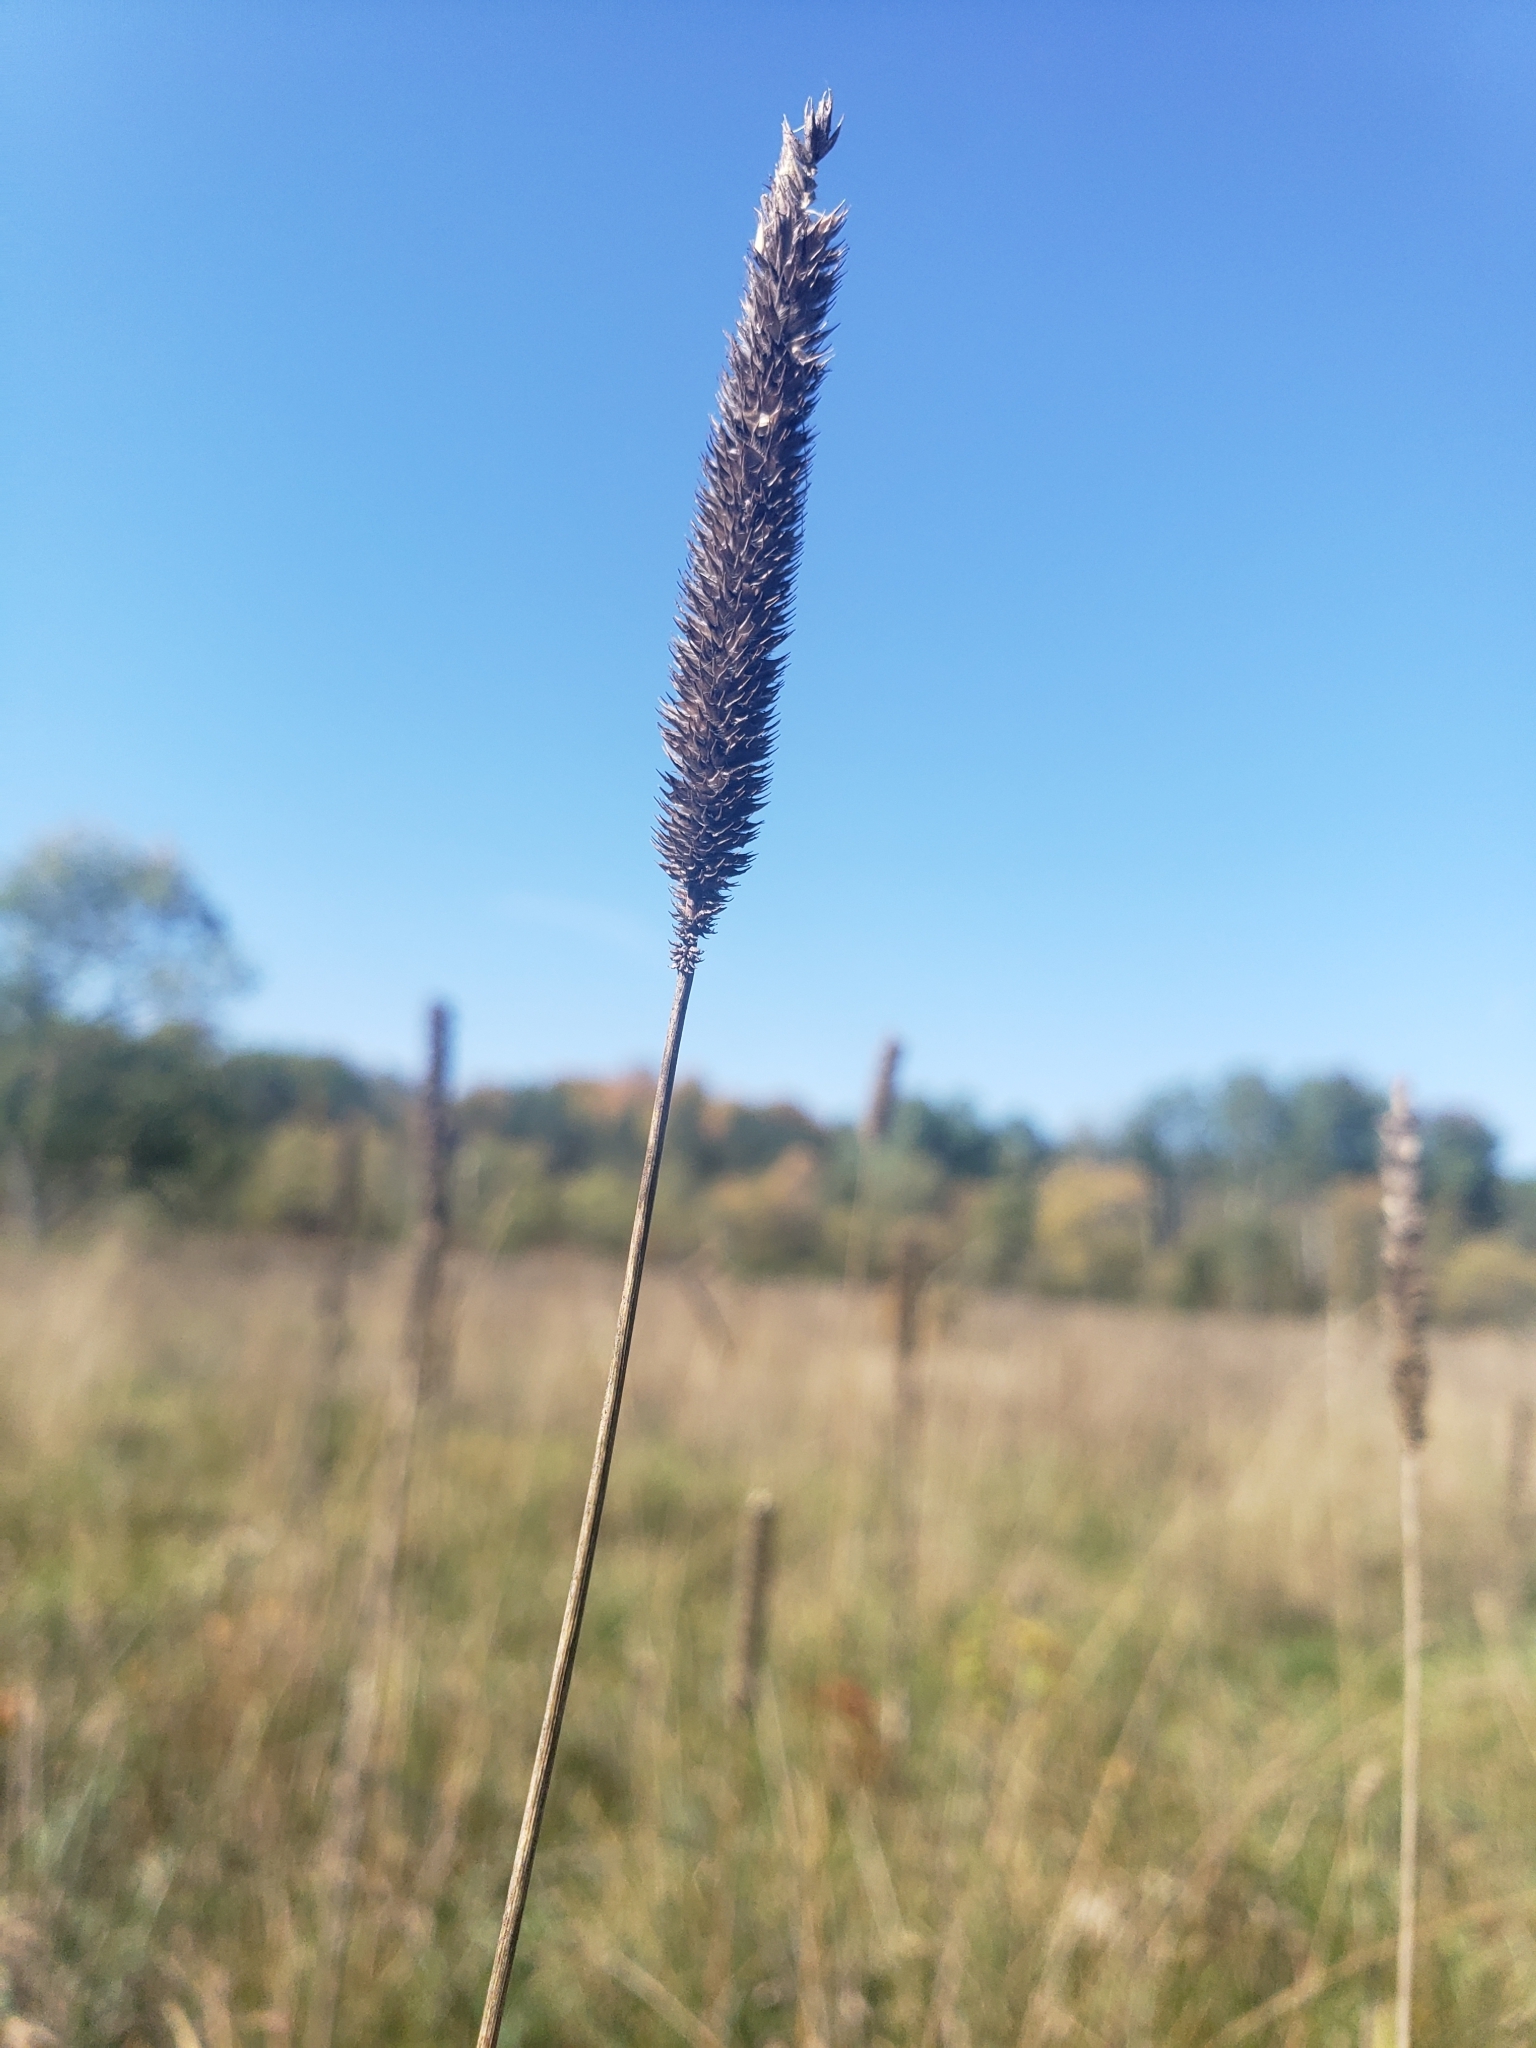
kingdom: Plantae
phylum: Tracheophyta
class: Liliopsida
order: Poales
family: Poaceae
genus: Phleum
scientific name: Phleum pratense
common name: Timothy grass
